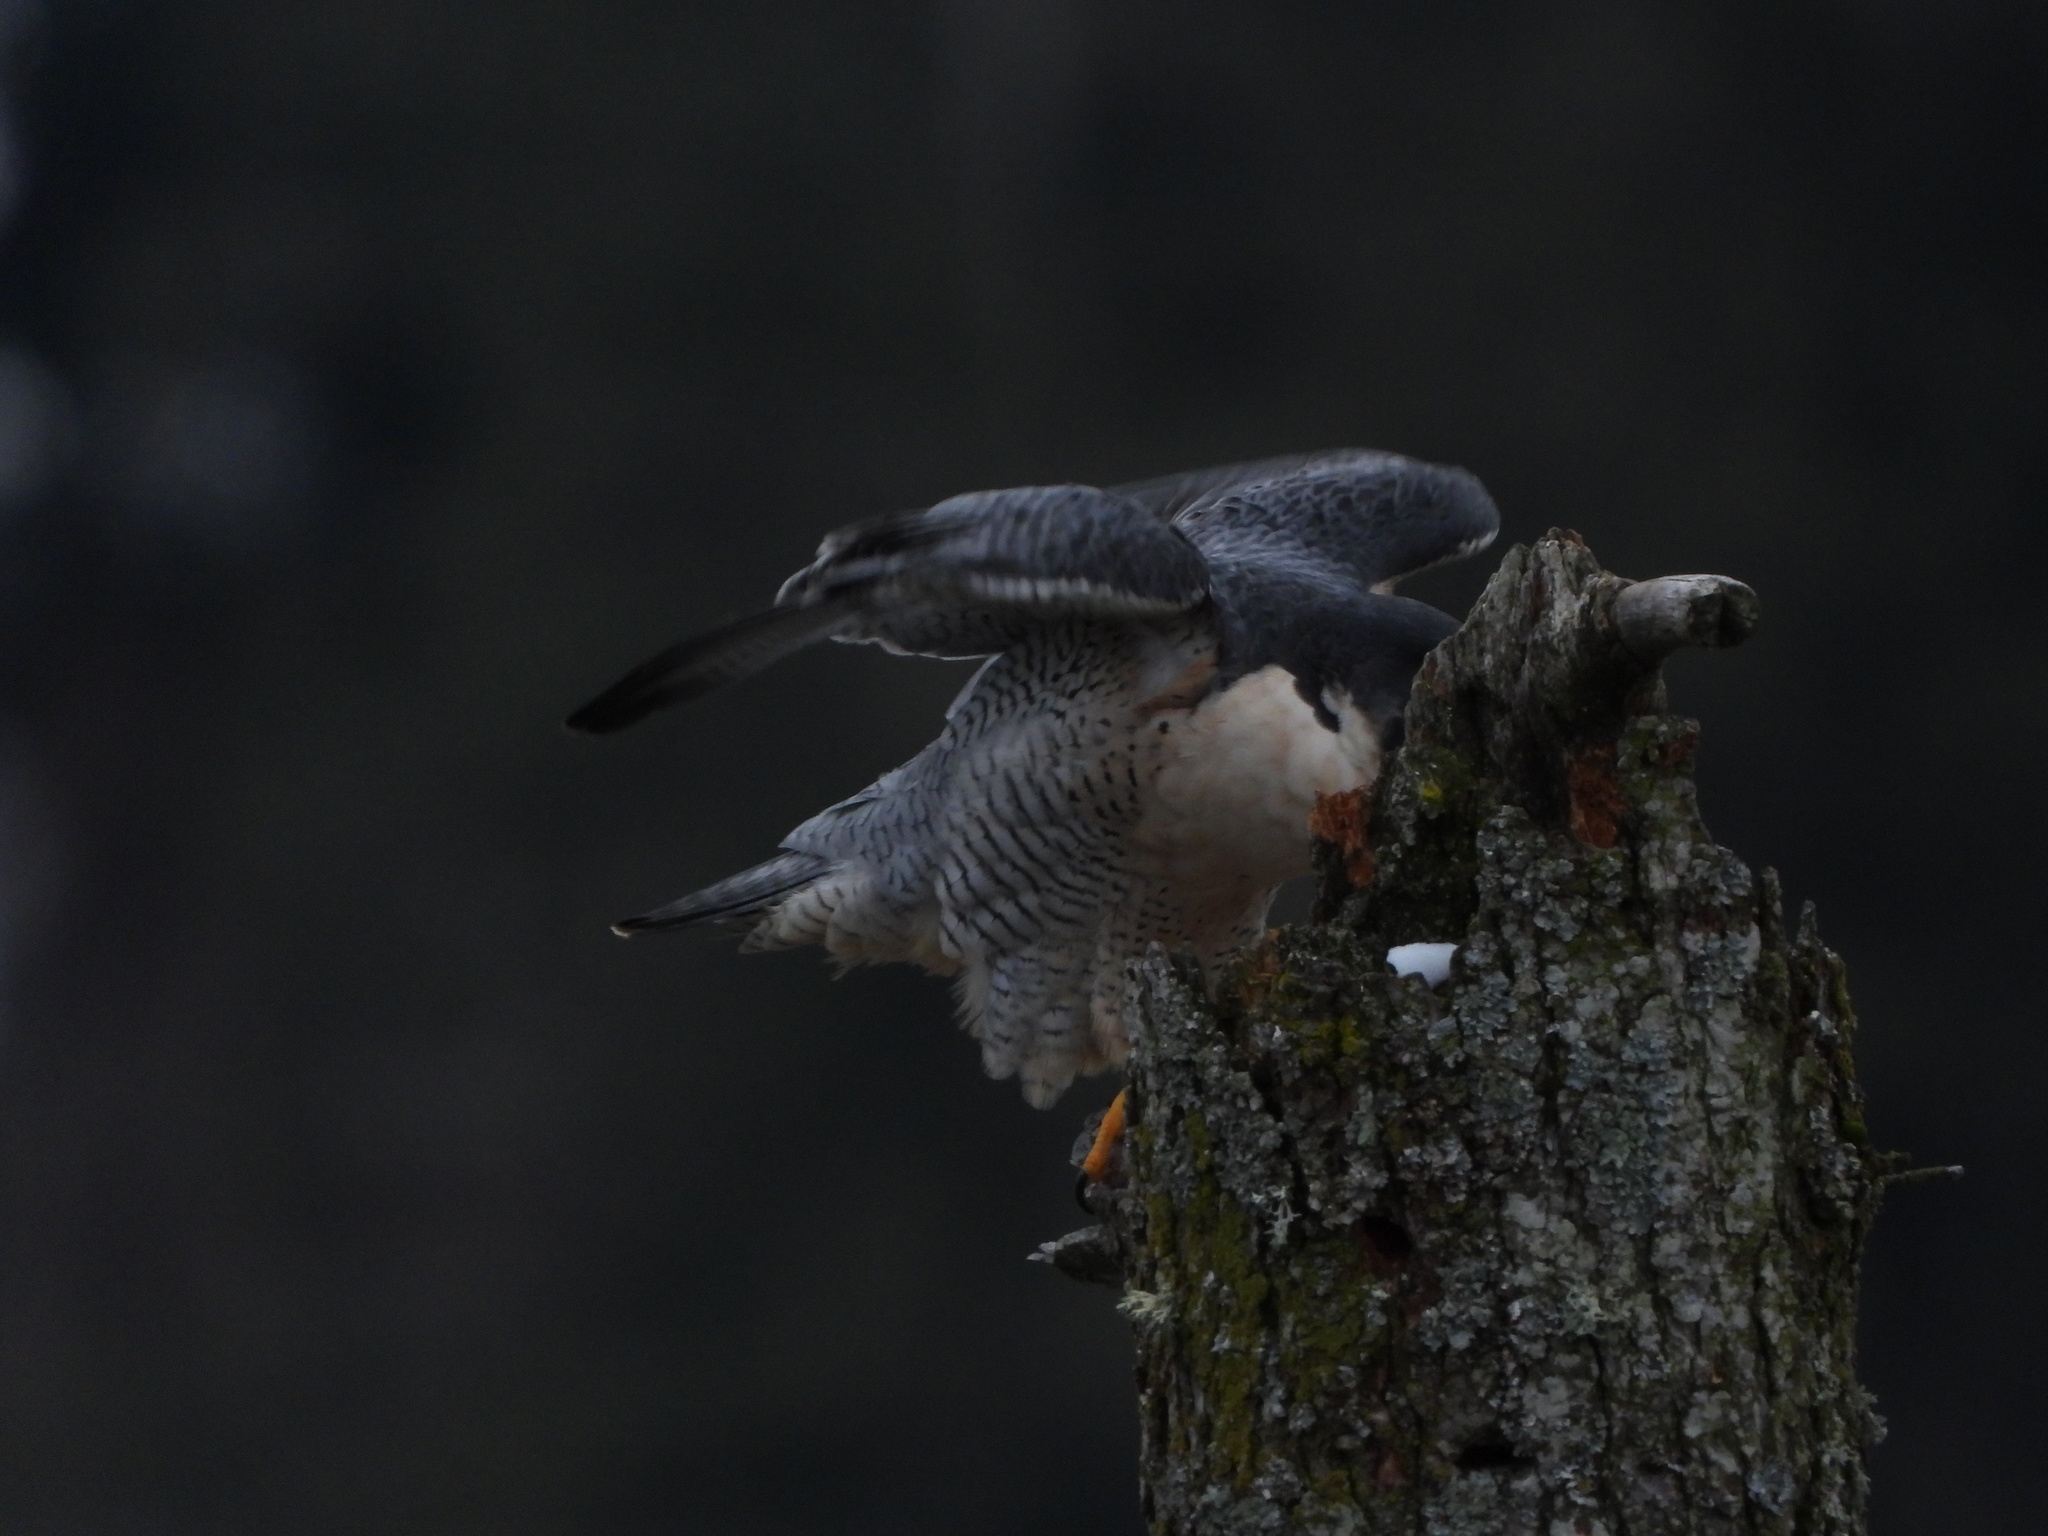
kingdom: Animalia
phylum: Chordata
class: Aves
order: Falconiformes
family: Falconidae
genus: Falco
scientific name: Falco peregrinus
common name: Peregrine falcon
